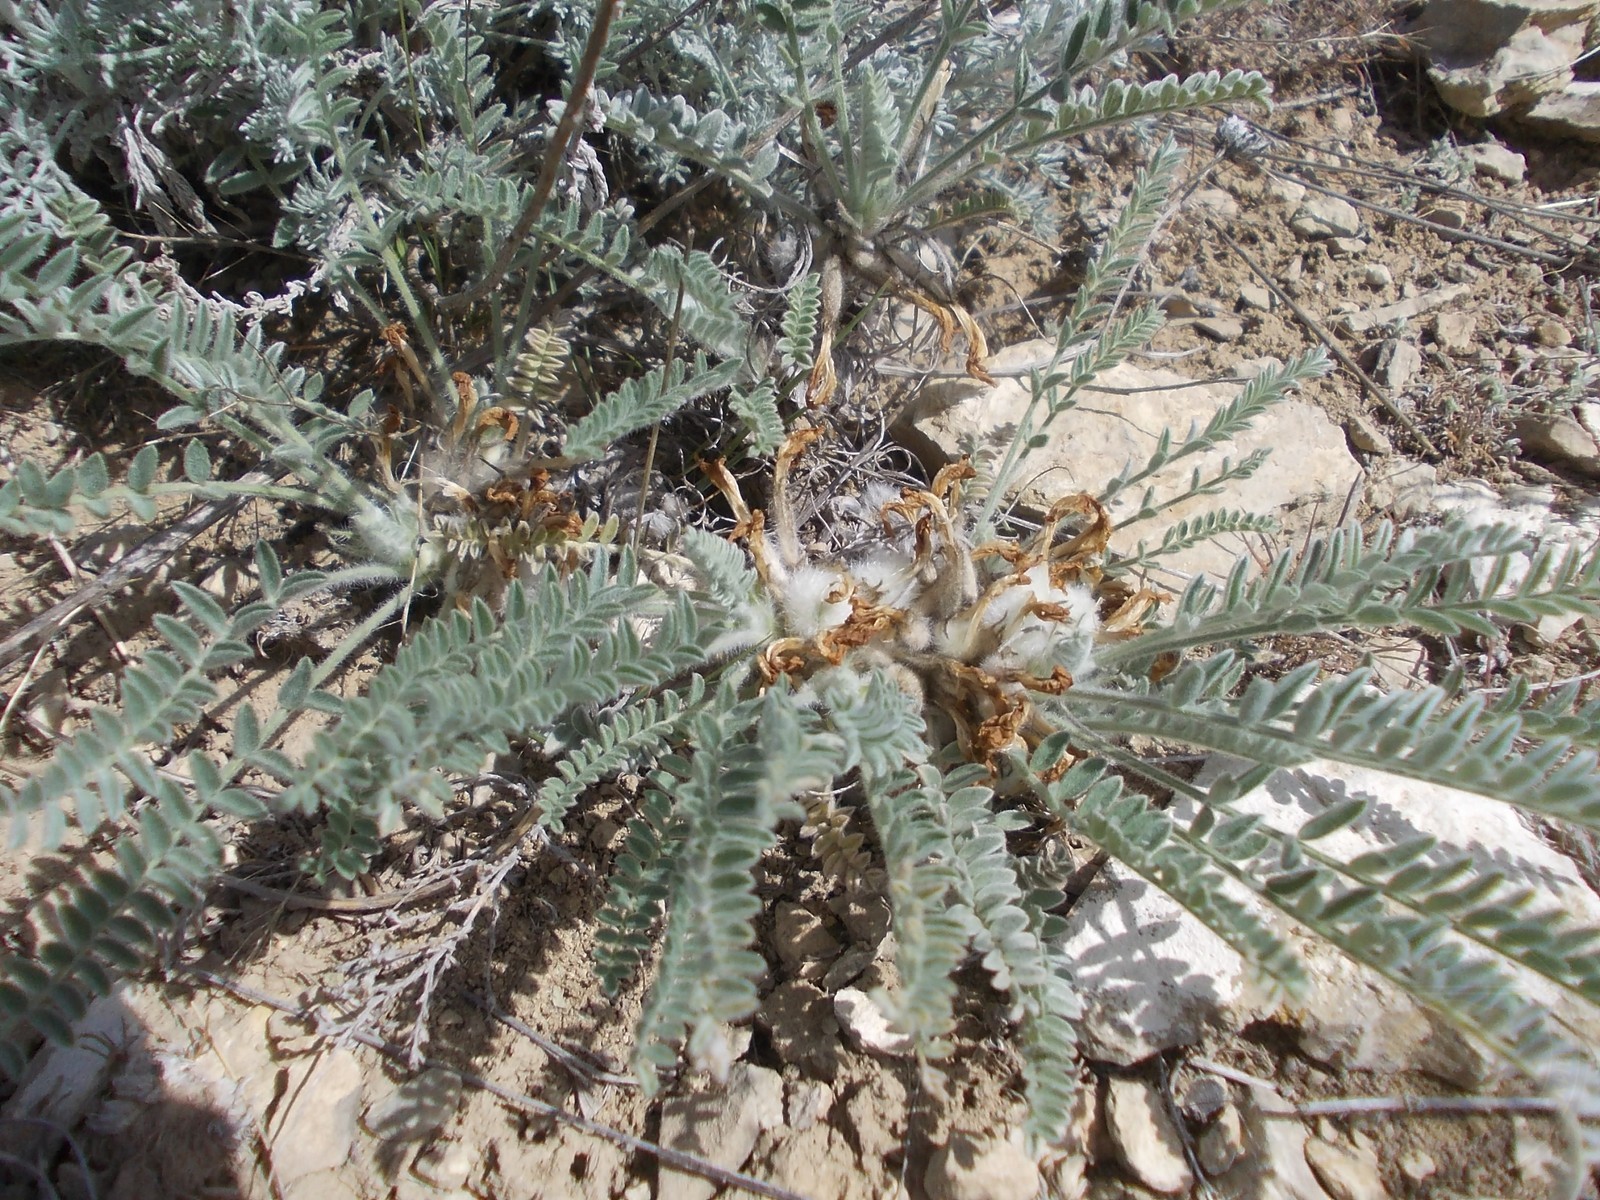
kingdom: Plantae
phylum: Tracheophyta
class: Magnoliopsida
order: Fabales
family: Fabaceae
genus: Astragalus
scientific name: Astragalus testiculatus
